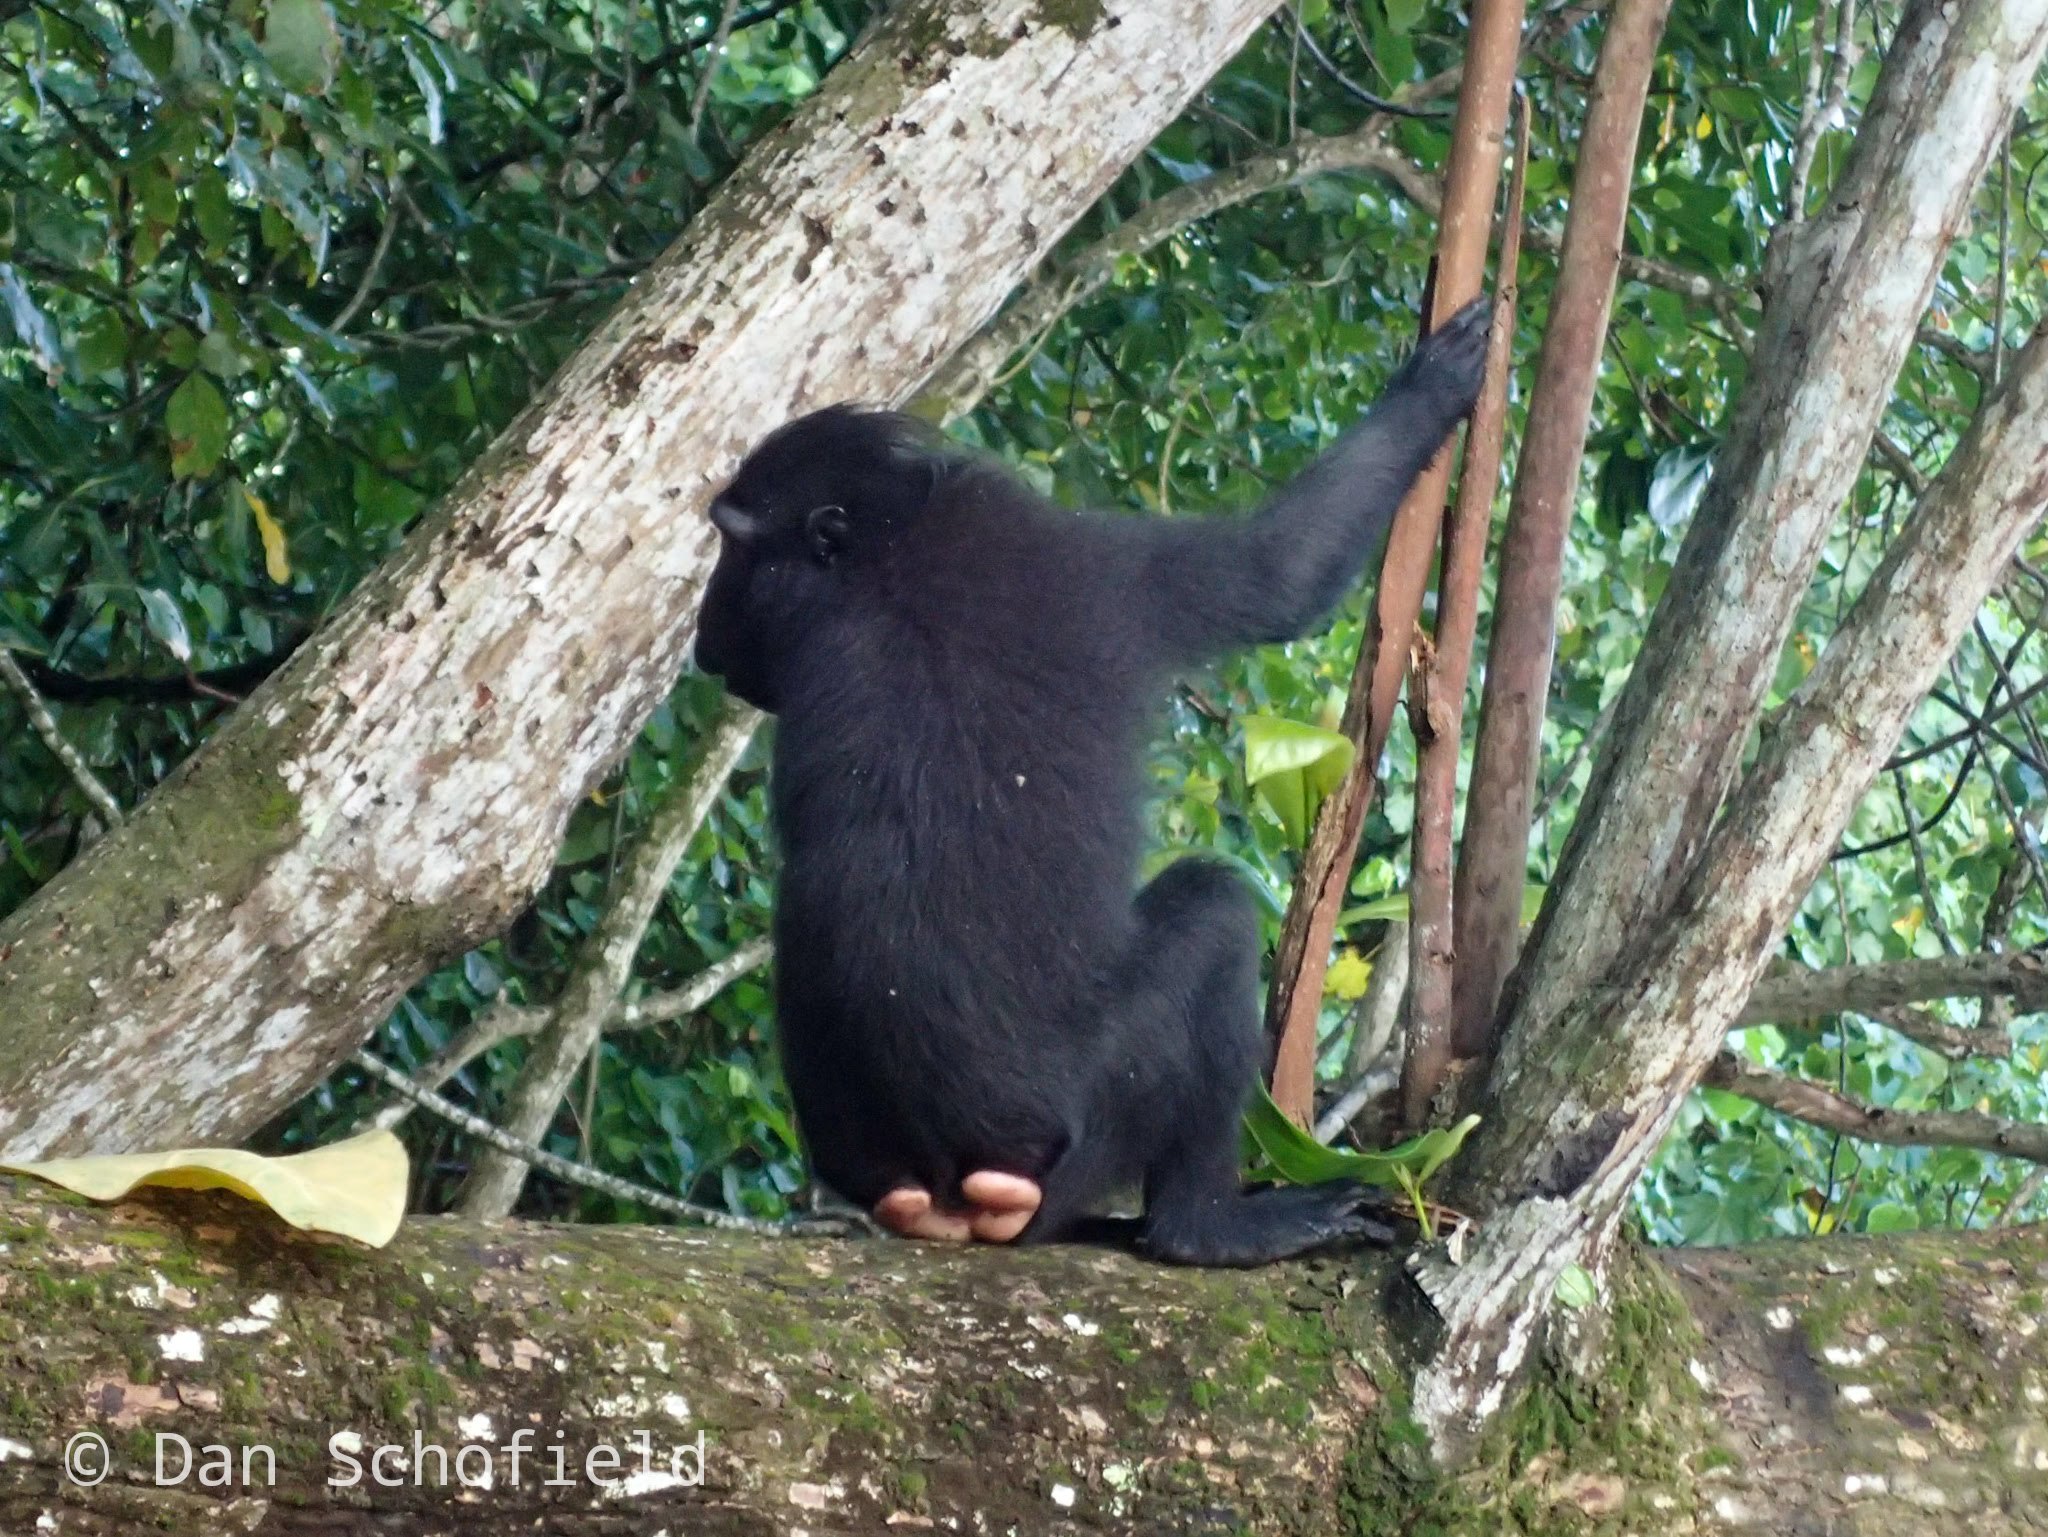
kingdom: Animalia
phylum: Chordata
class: Mammalia
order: Primates
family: Cercopithecidae
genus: Macaca
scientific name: Macaca nigra
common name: Celebes crested macaque
